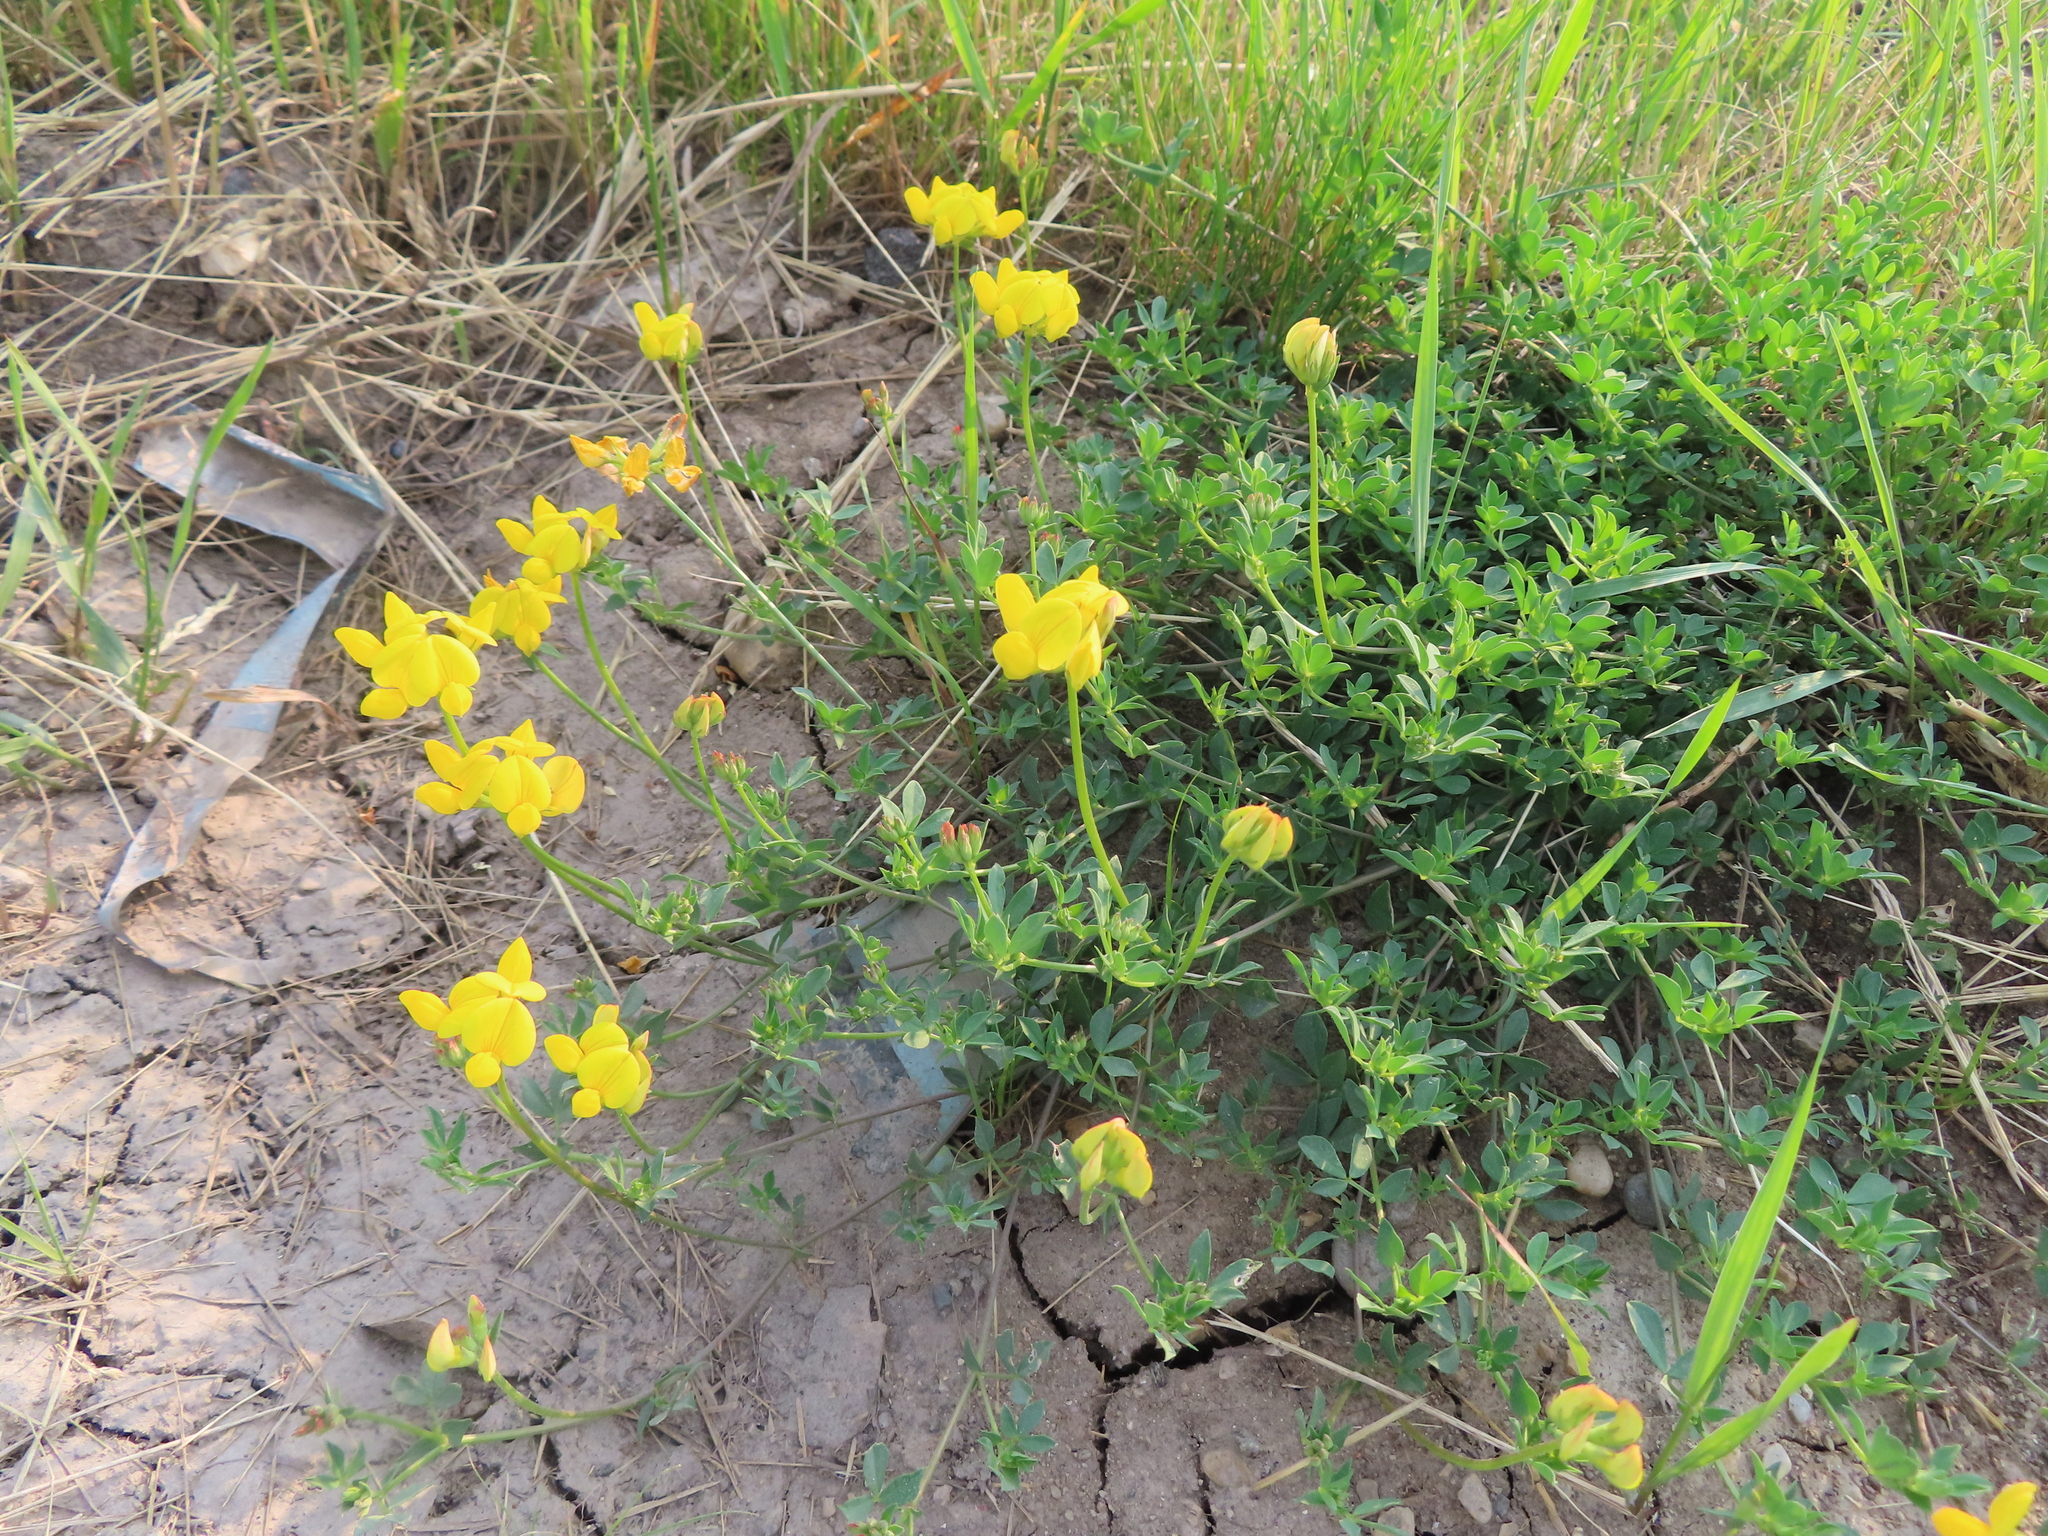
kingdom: Plantae
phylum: Tracheophyta
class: Magnoliopsida
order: Fabales
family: Fabaceae
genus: Lotus
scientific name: Lotus corniculatus
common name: Common bird's-foot-trefoil
